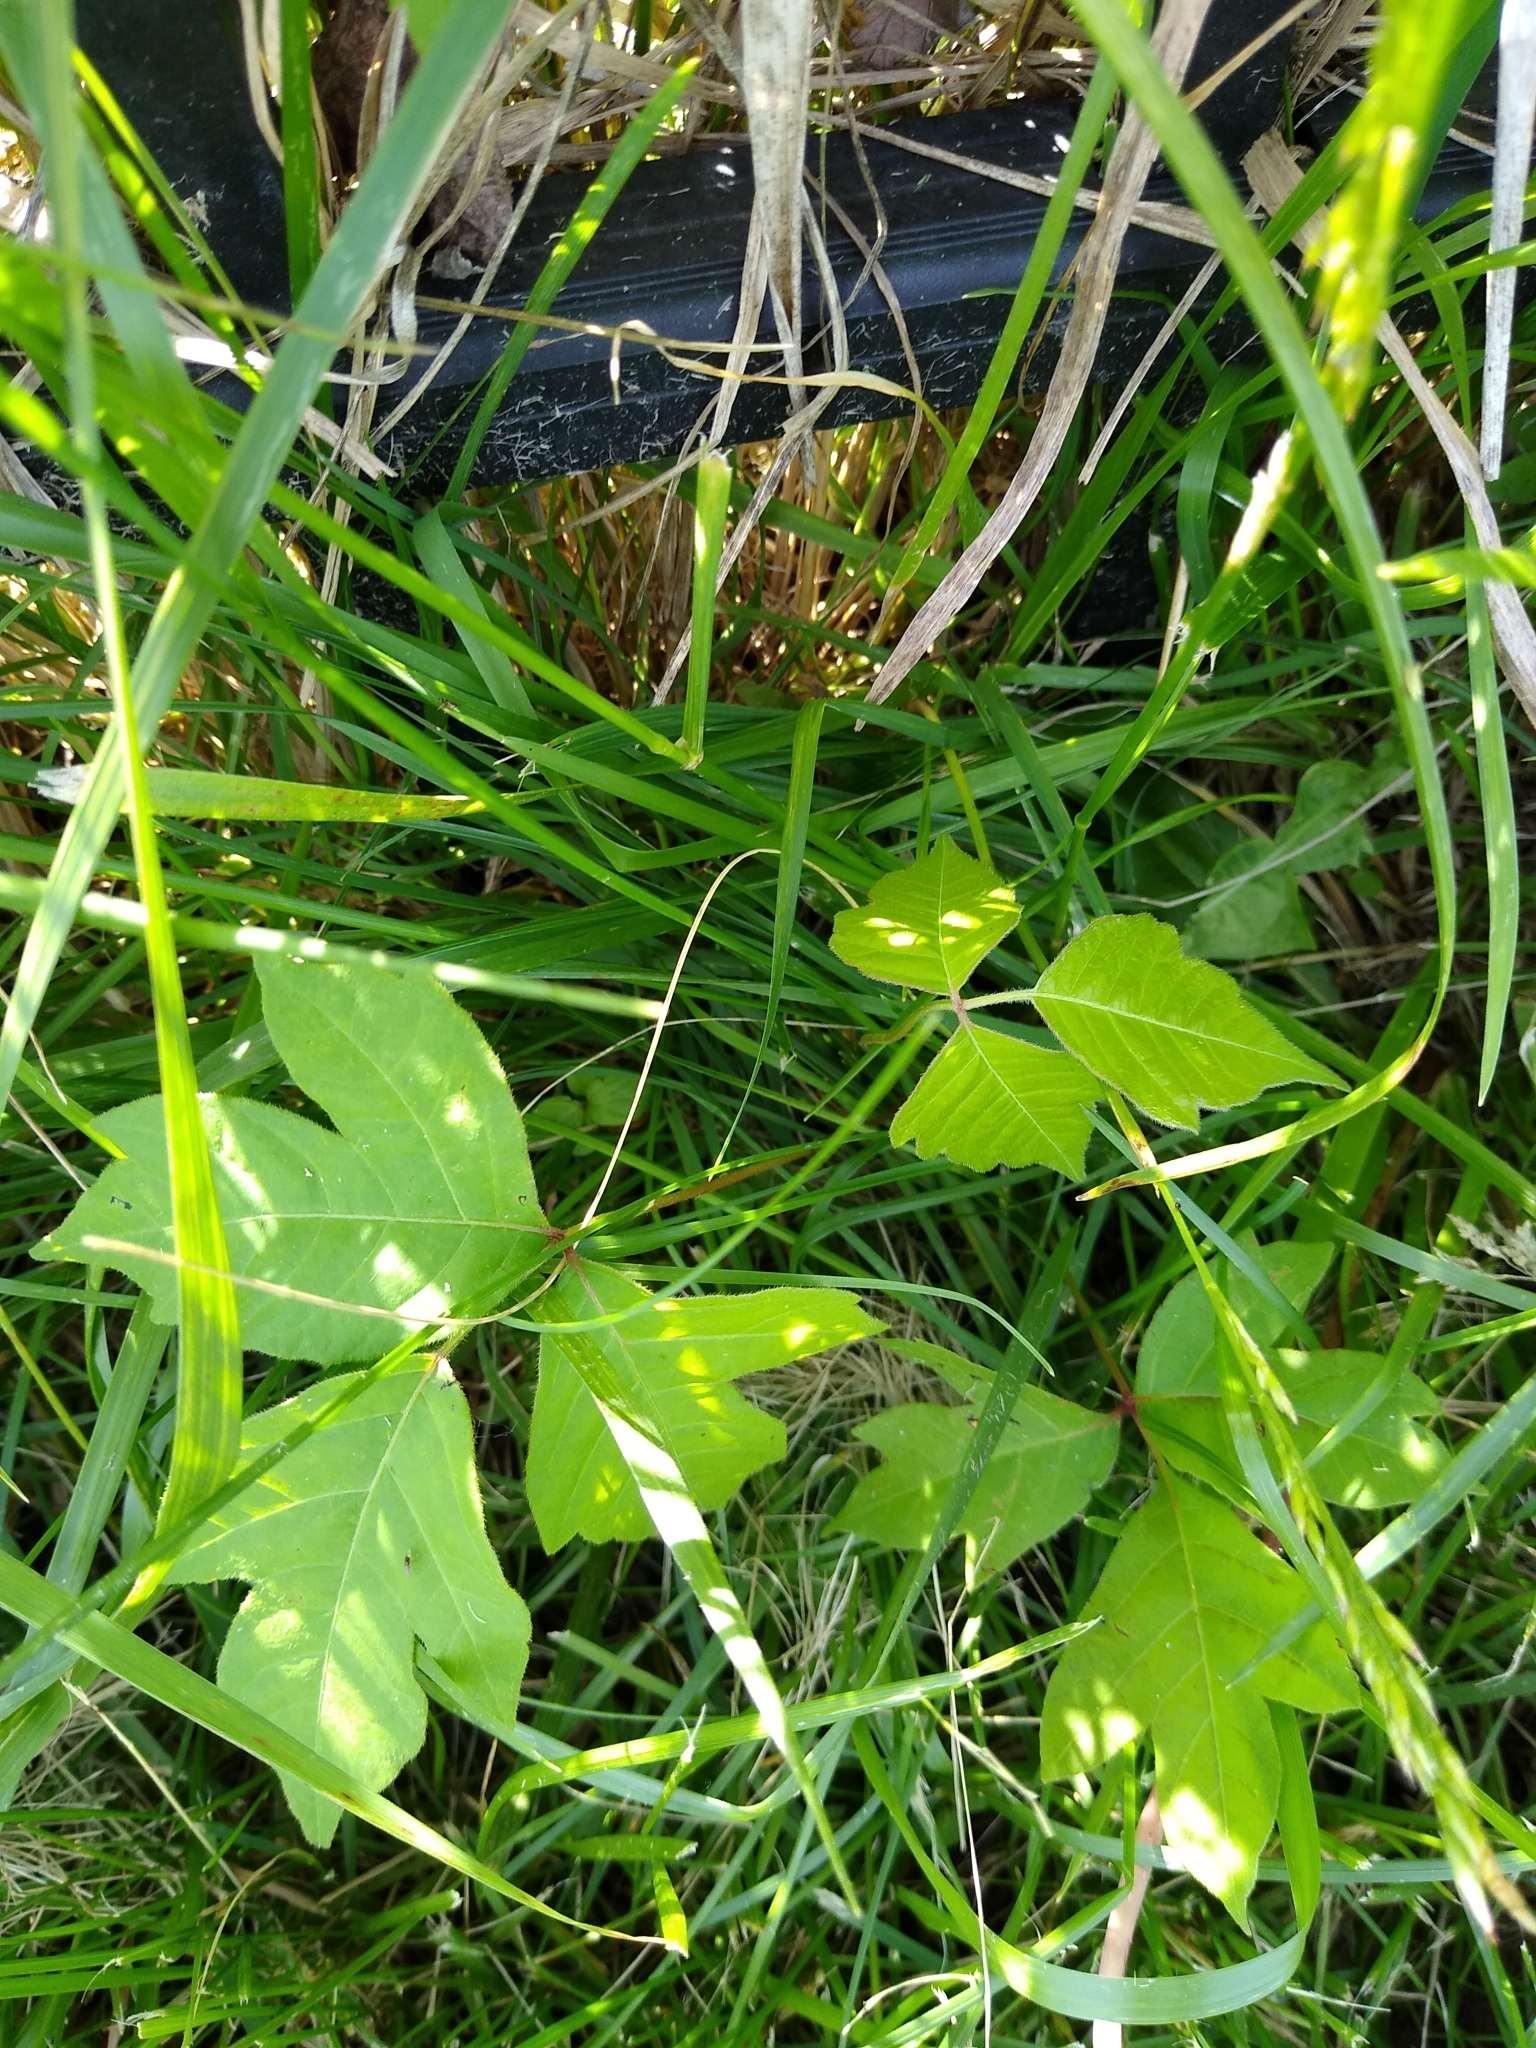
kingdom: Plantae
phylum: Tracheophyta
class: Magnoliopsida
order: Sapindales
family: Anacardiaceae
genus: Toxicodendron
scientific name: Toxicodendron radicans
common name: Poison ivy
